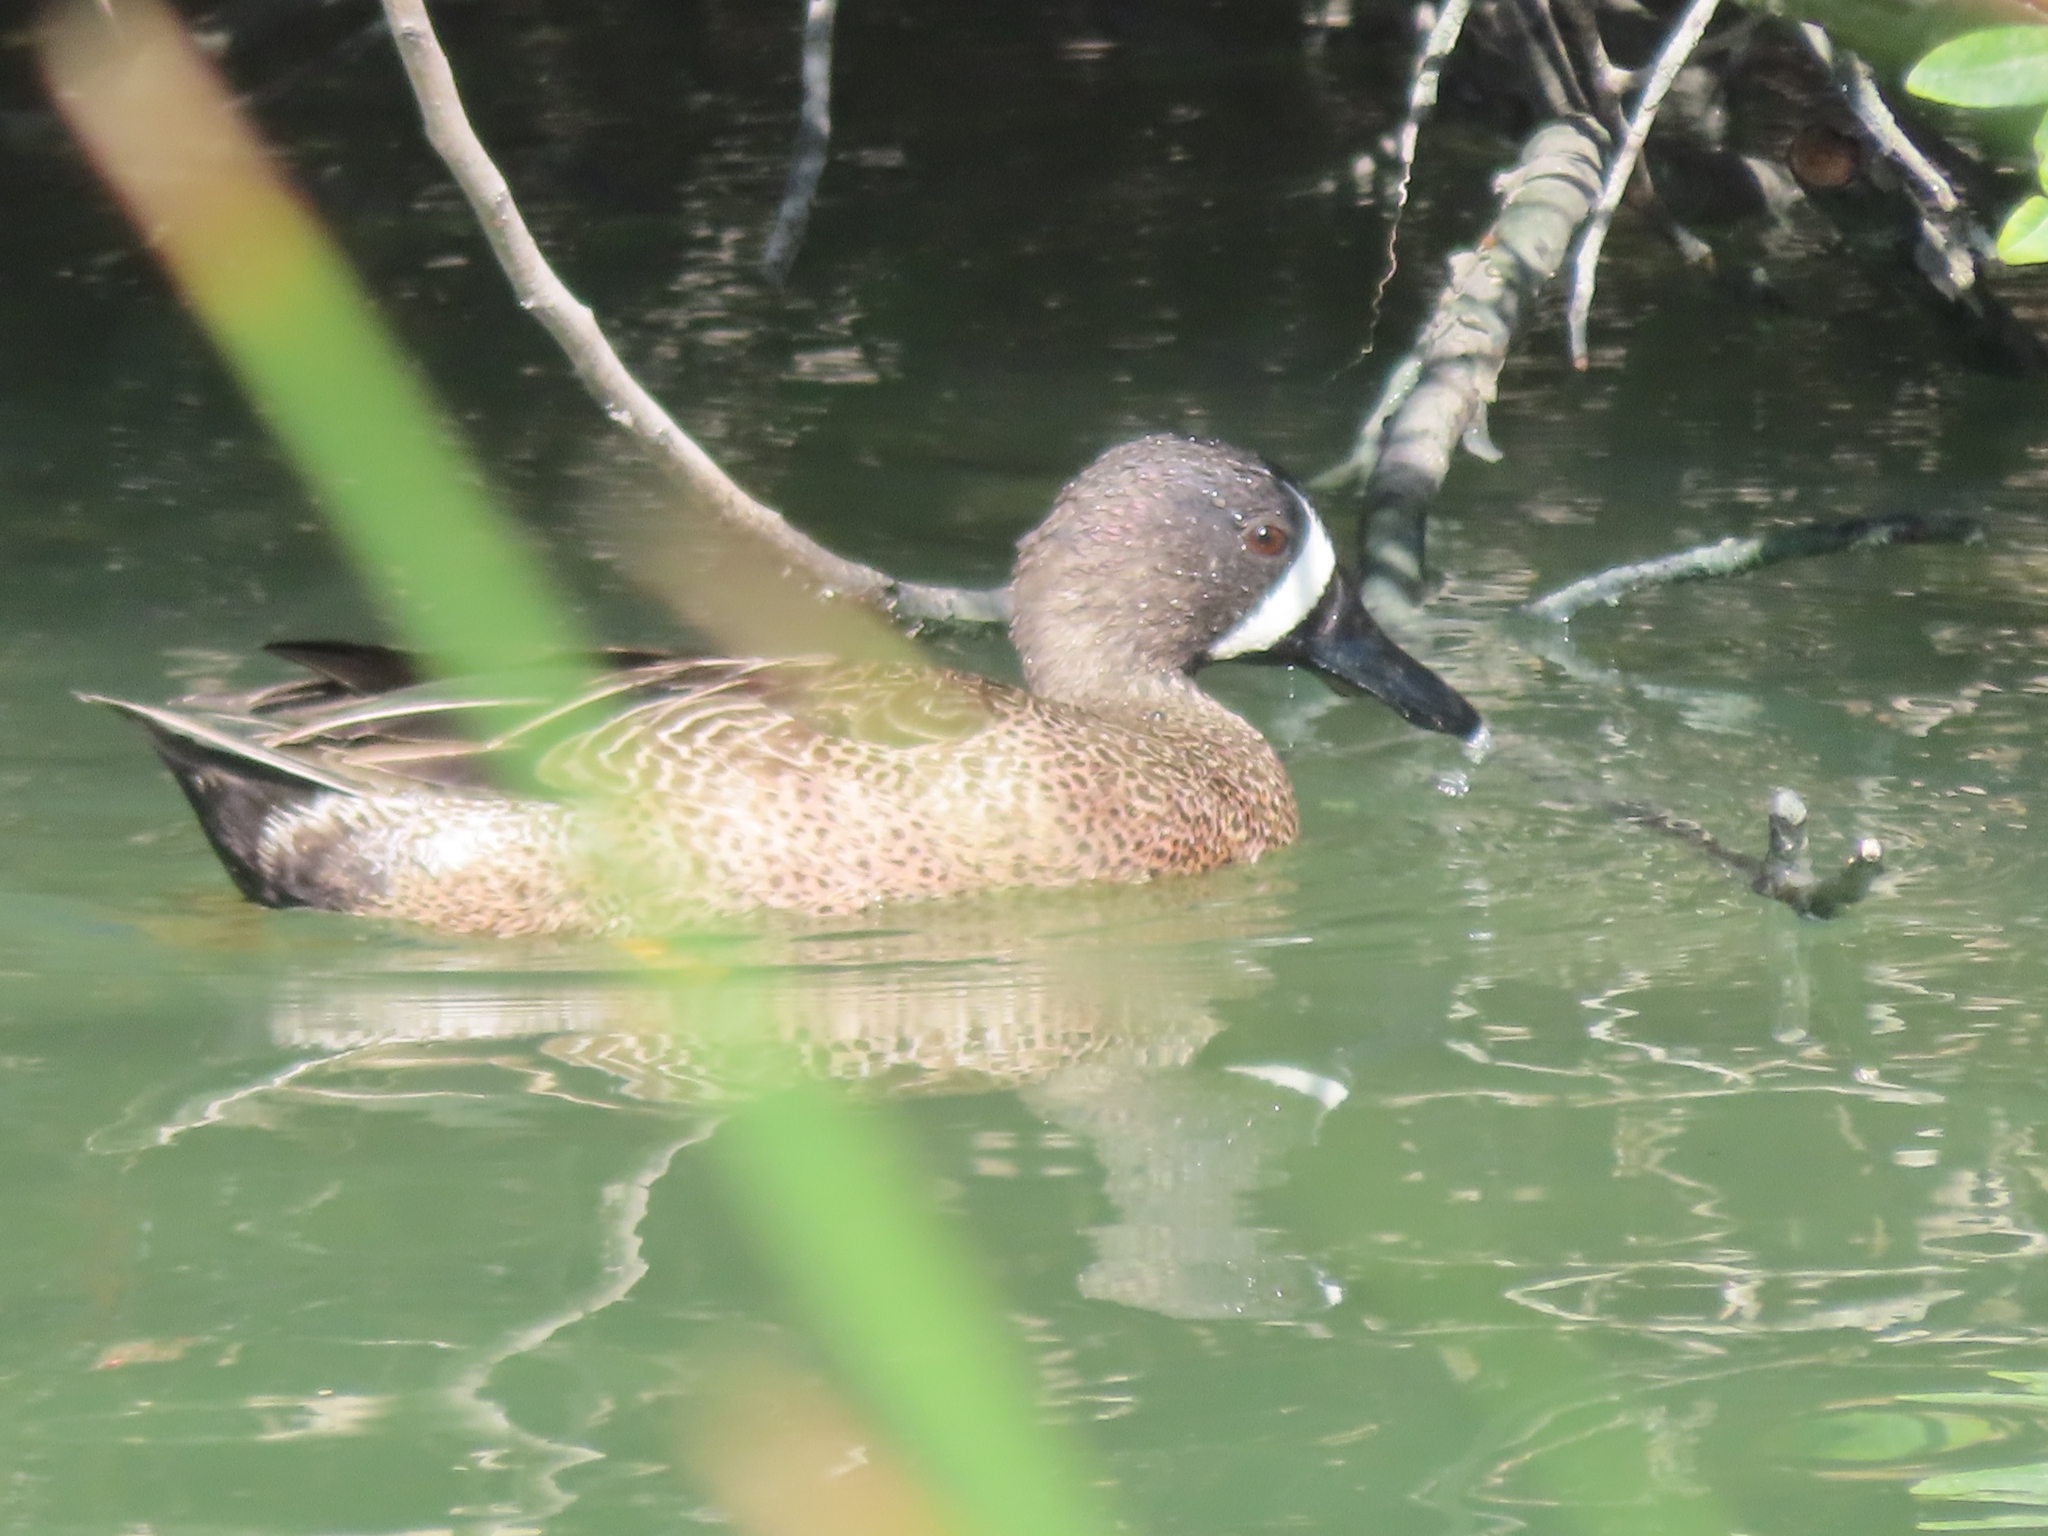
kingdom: Animalia
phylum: Chordata
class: Aves
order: Anseriformes
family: Anatidae
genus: Spatula
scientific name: Spatula discors
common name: Blue-winged teal
